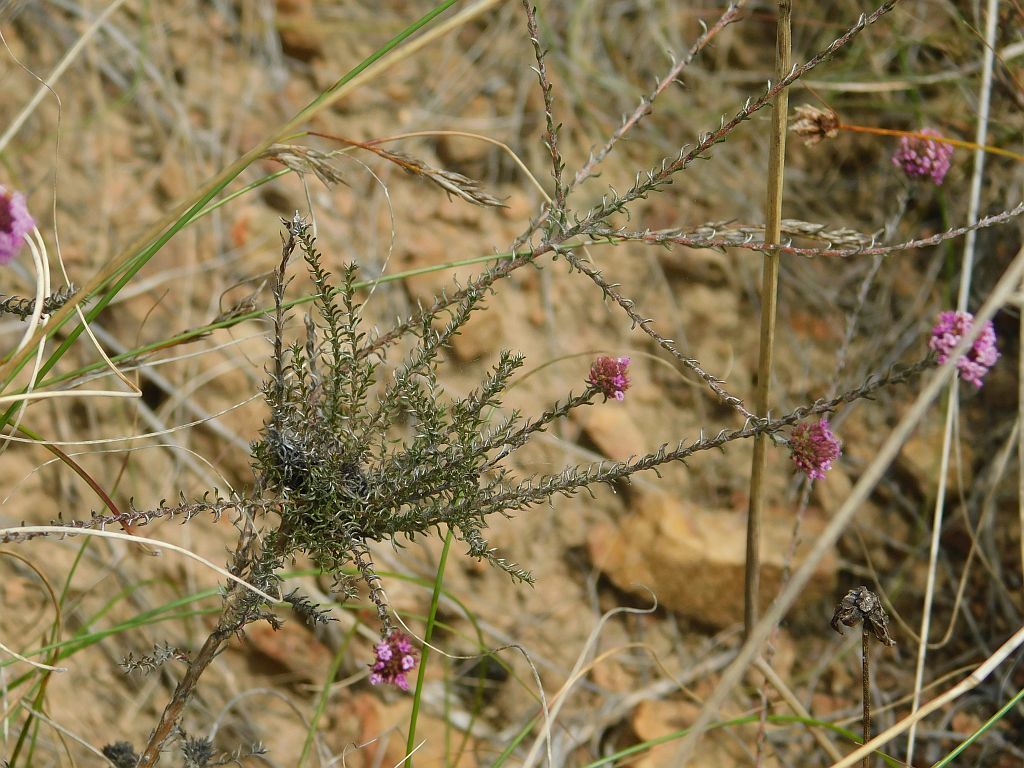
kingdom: Plantae
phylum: Tracheophyta
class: Magnoliopsida
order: Asterales
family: Asteraceae
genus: Stoebe
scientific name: Stoebe capitata
